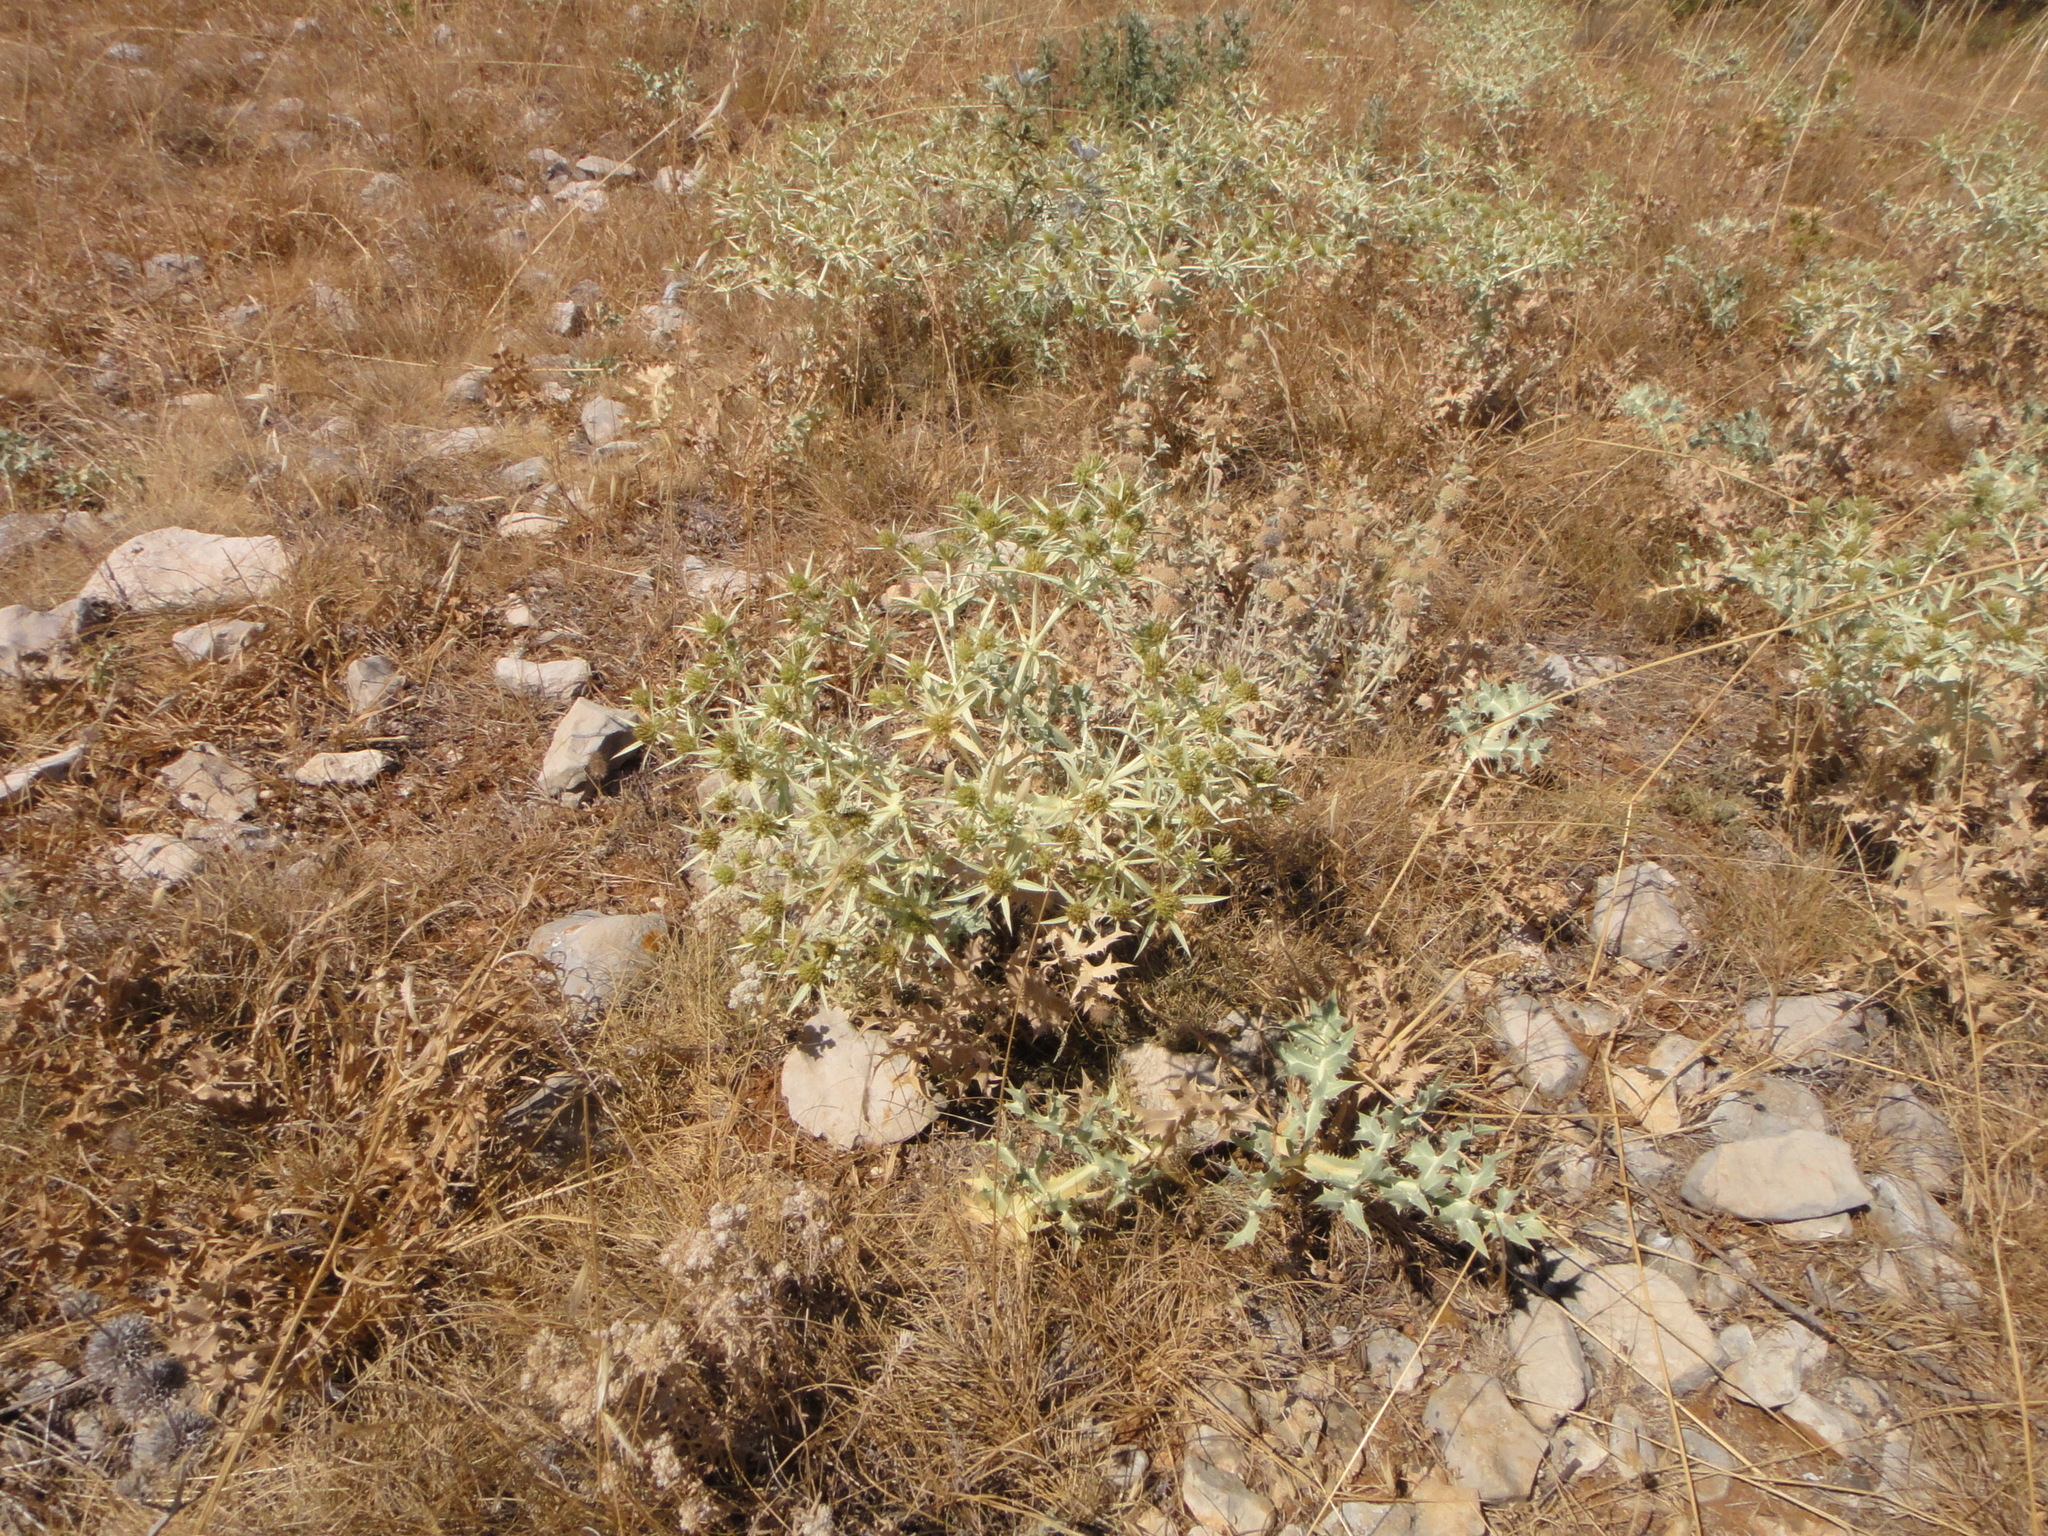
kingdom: Plantae
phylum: Tracheophyta
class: Magnoliopsida
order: Apiales
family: Apiaceae
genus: Eryngium
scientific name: Eryngium campestre
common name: Field eryngo
